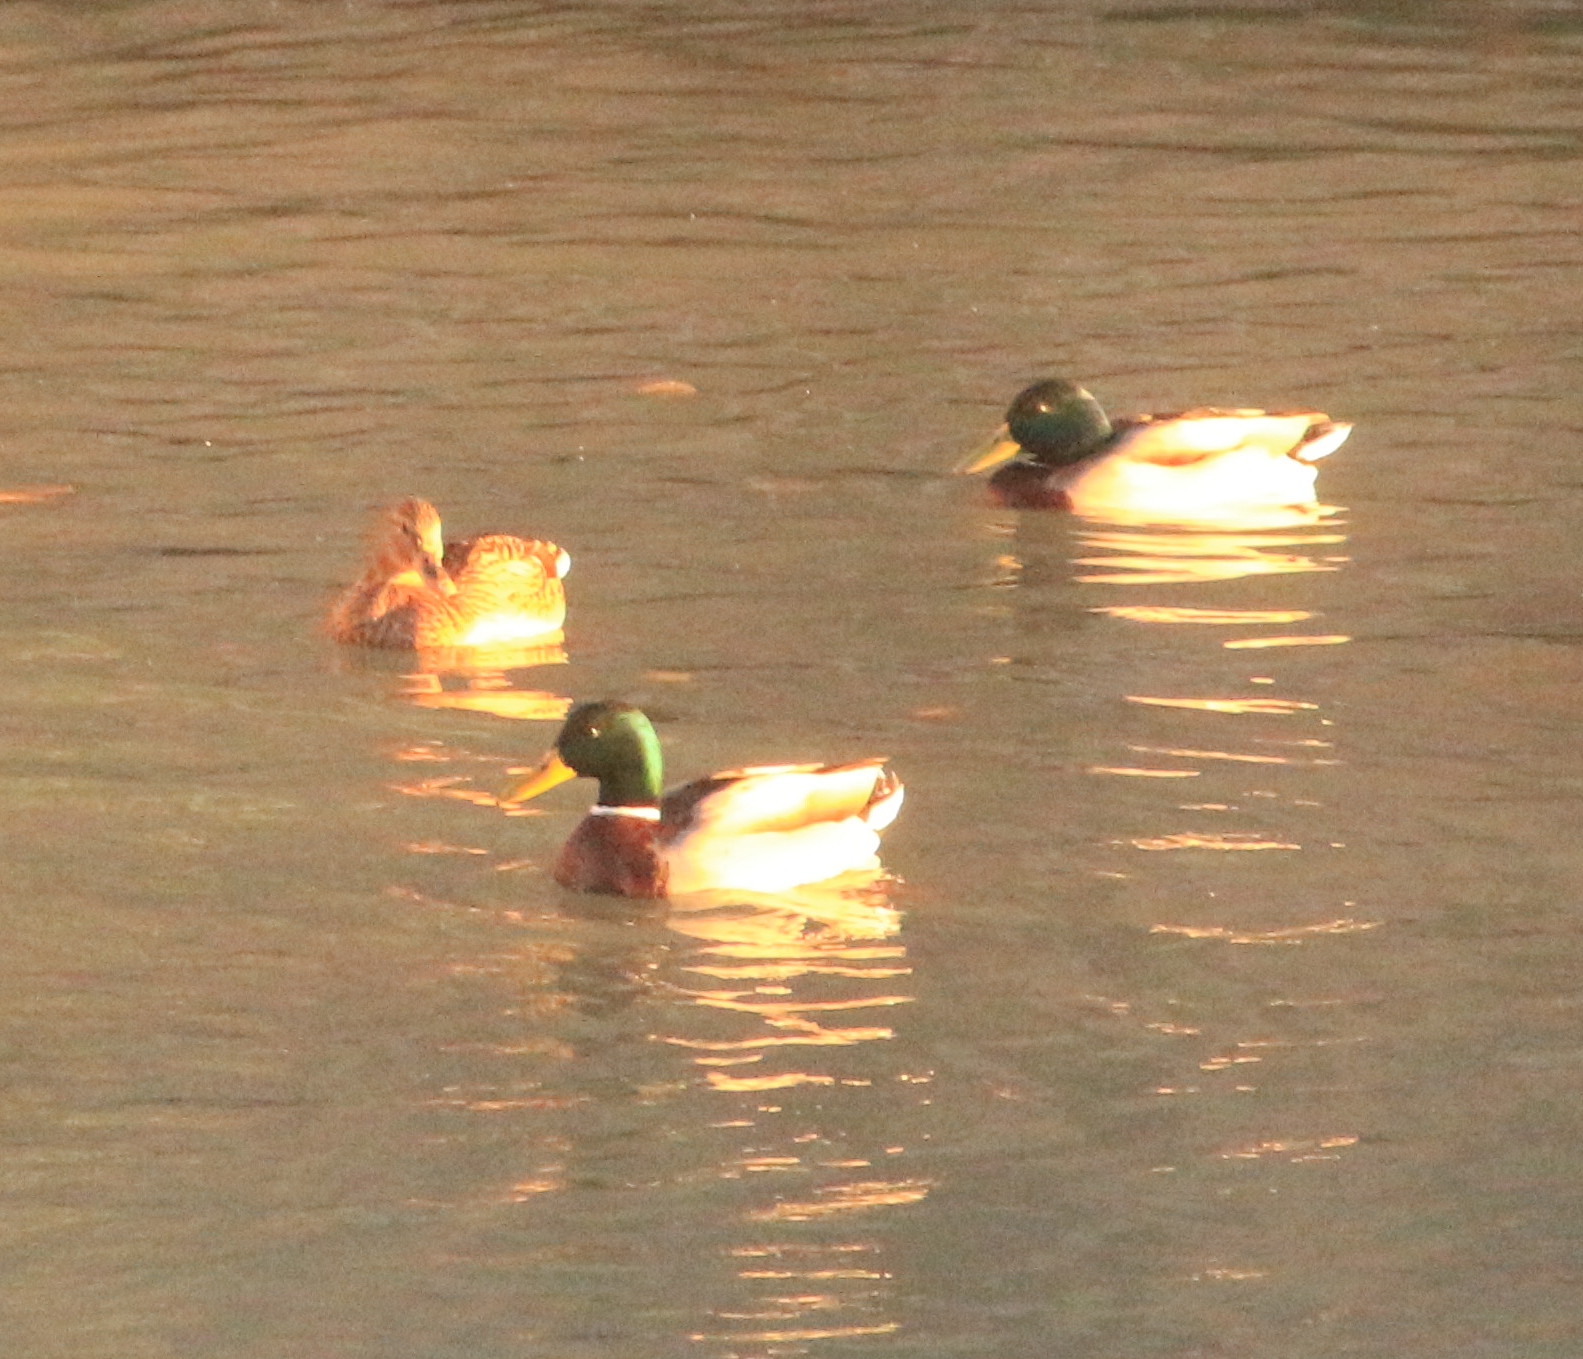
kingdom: Animalia
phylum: Chordata
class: Aves
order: Anseriformes
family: Anatidae
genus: Anas
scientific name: Anas platyrhynchos
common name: Mallard
